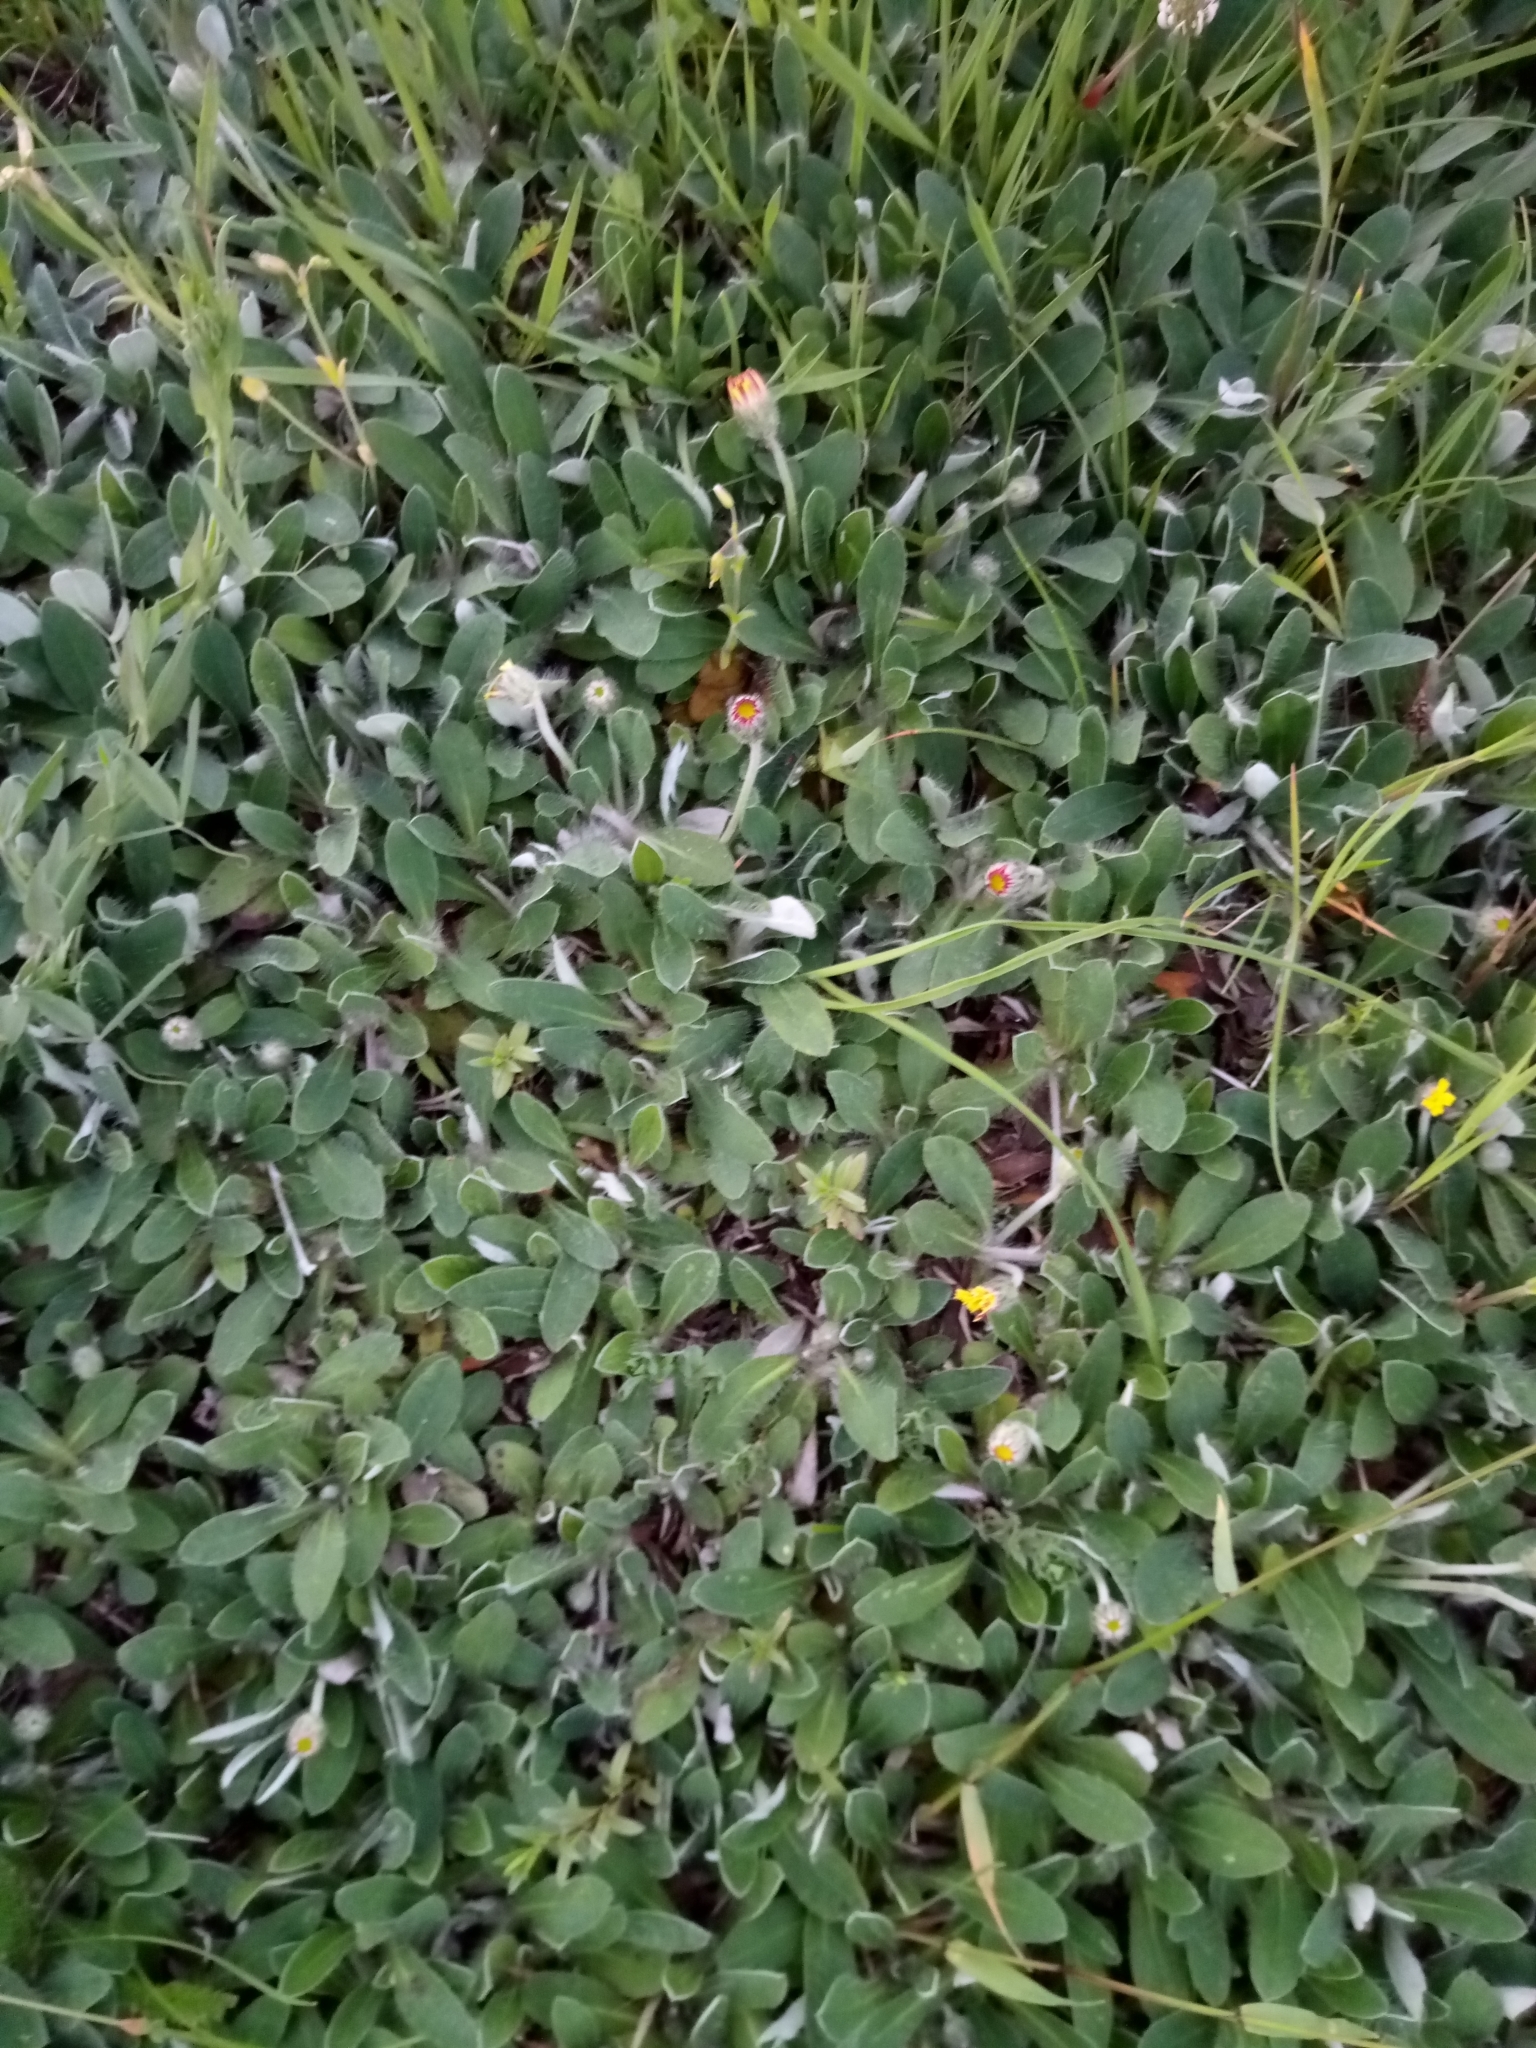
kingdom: Plantae
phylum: Tracheophyta
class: Magnoliopsida
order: Asterales
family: Asteraceae
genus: Pilosella
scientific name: Pilosella officinarum
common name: Mouse-ear hawkweed
